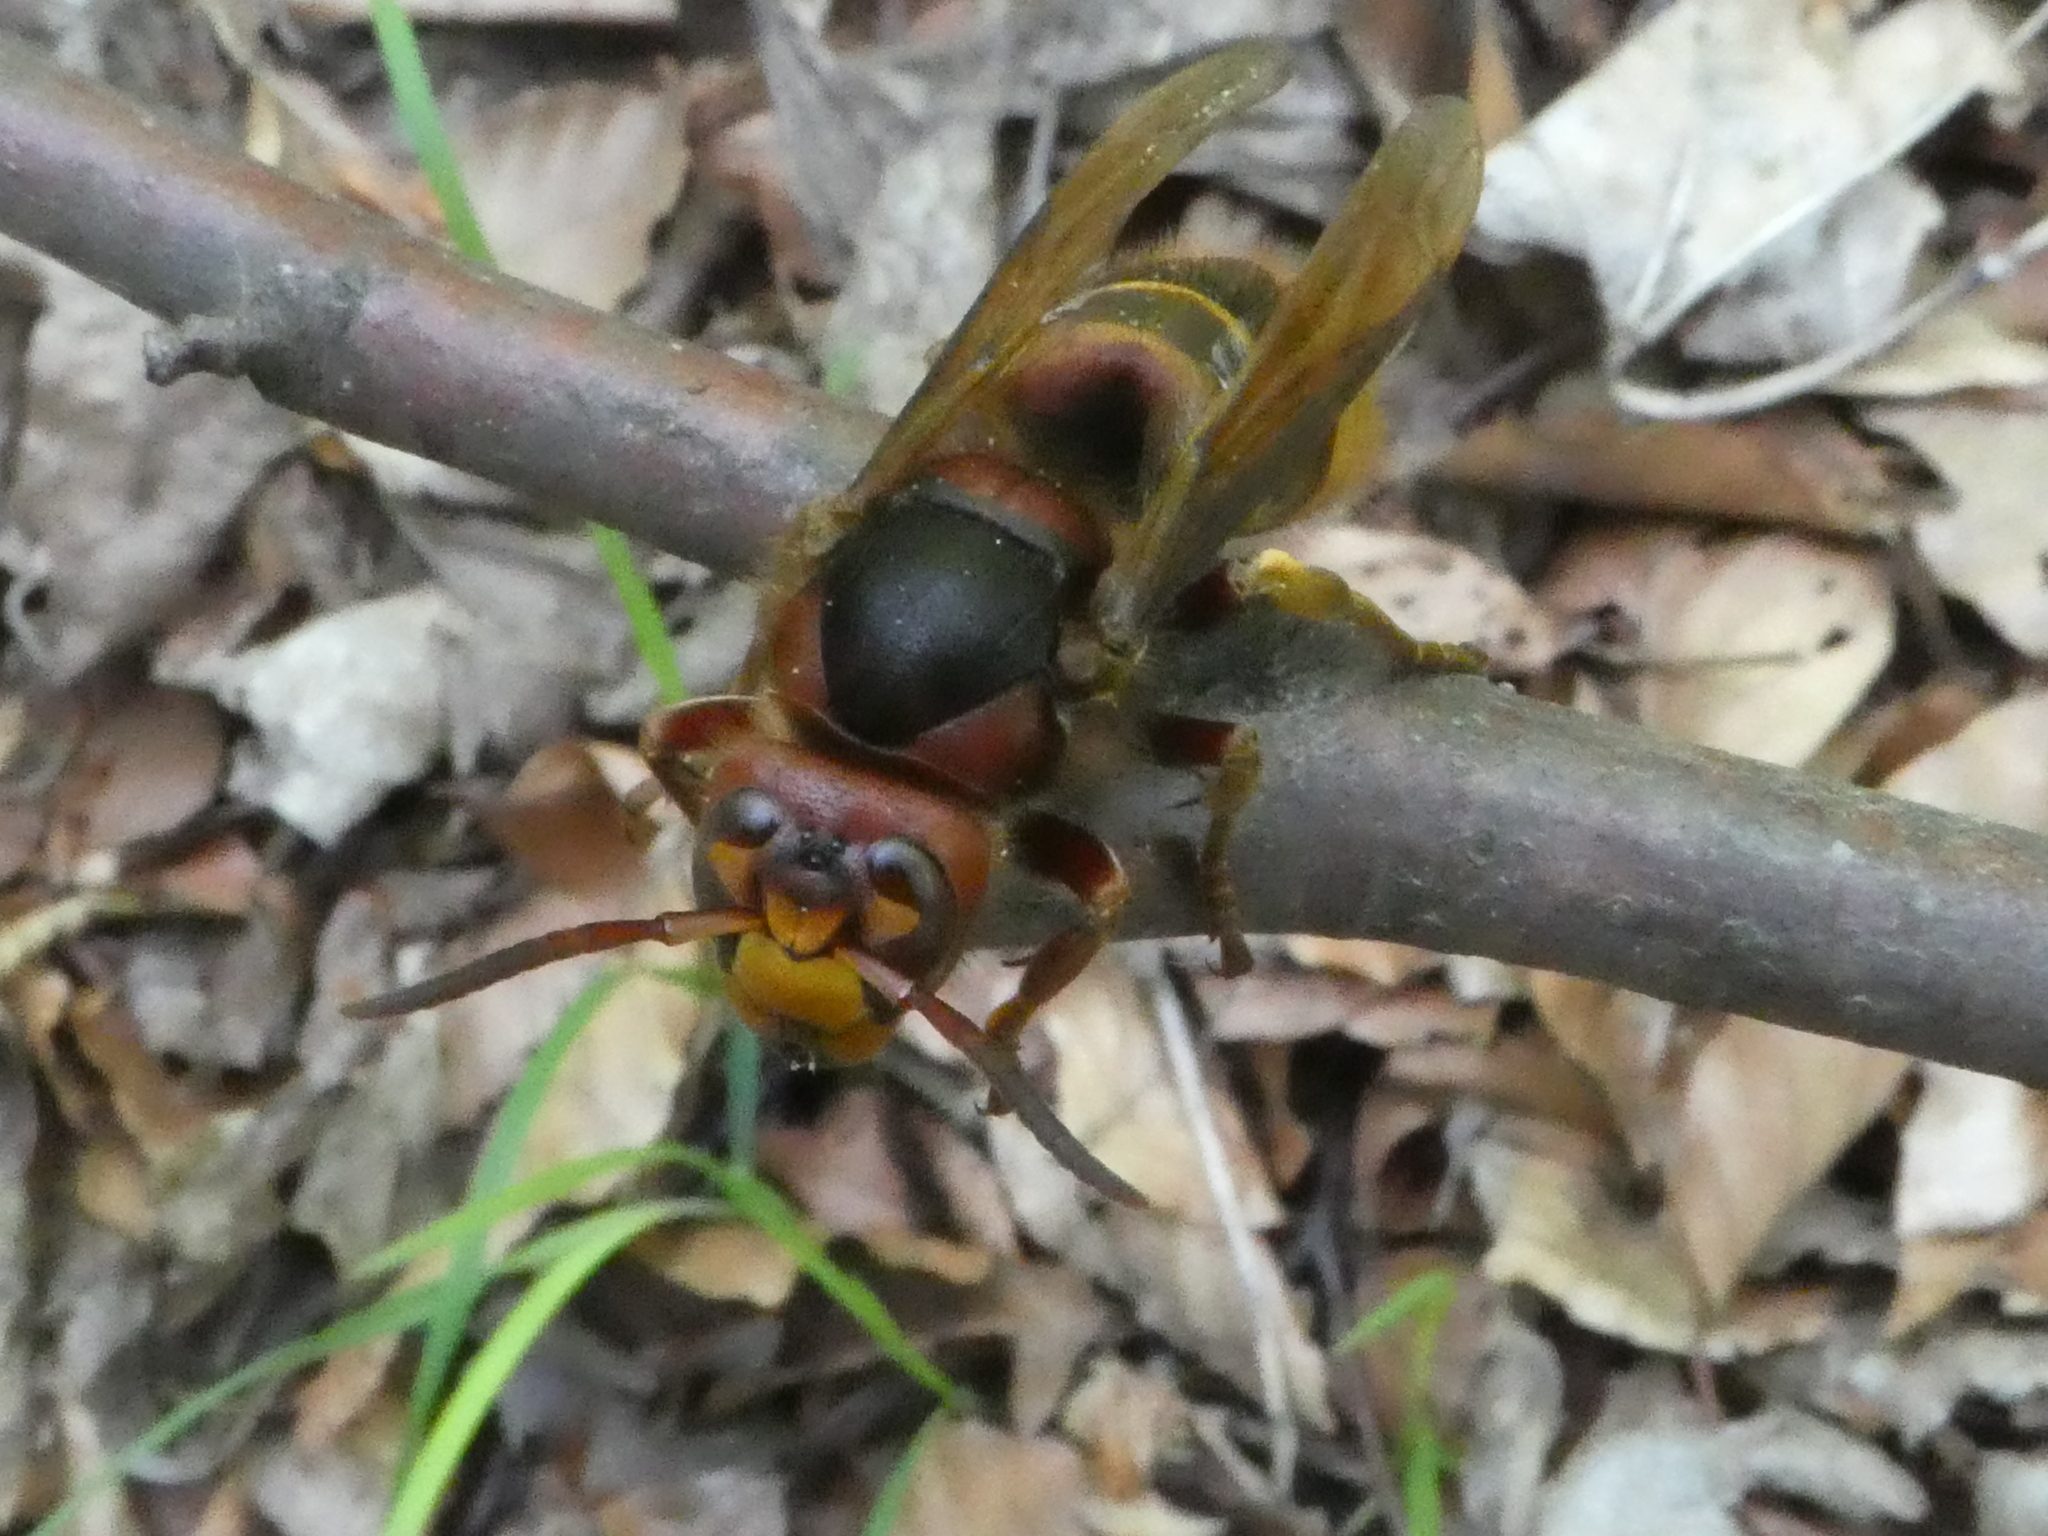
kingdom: Animalia
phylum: Arthropoda
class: Insecta
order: Hymenoptera
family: Vespidae
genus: Vespa
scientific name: Vespa crabro
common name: Hornet
